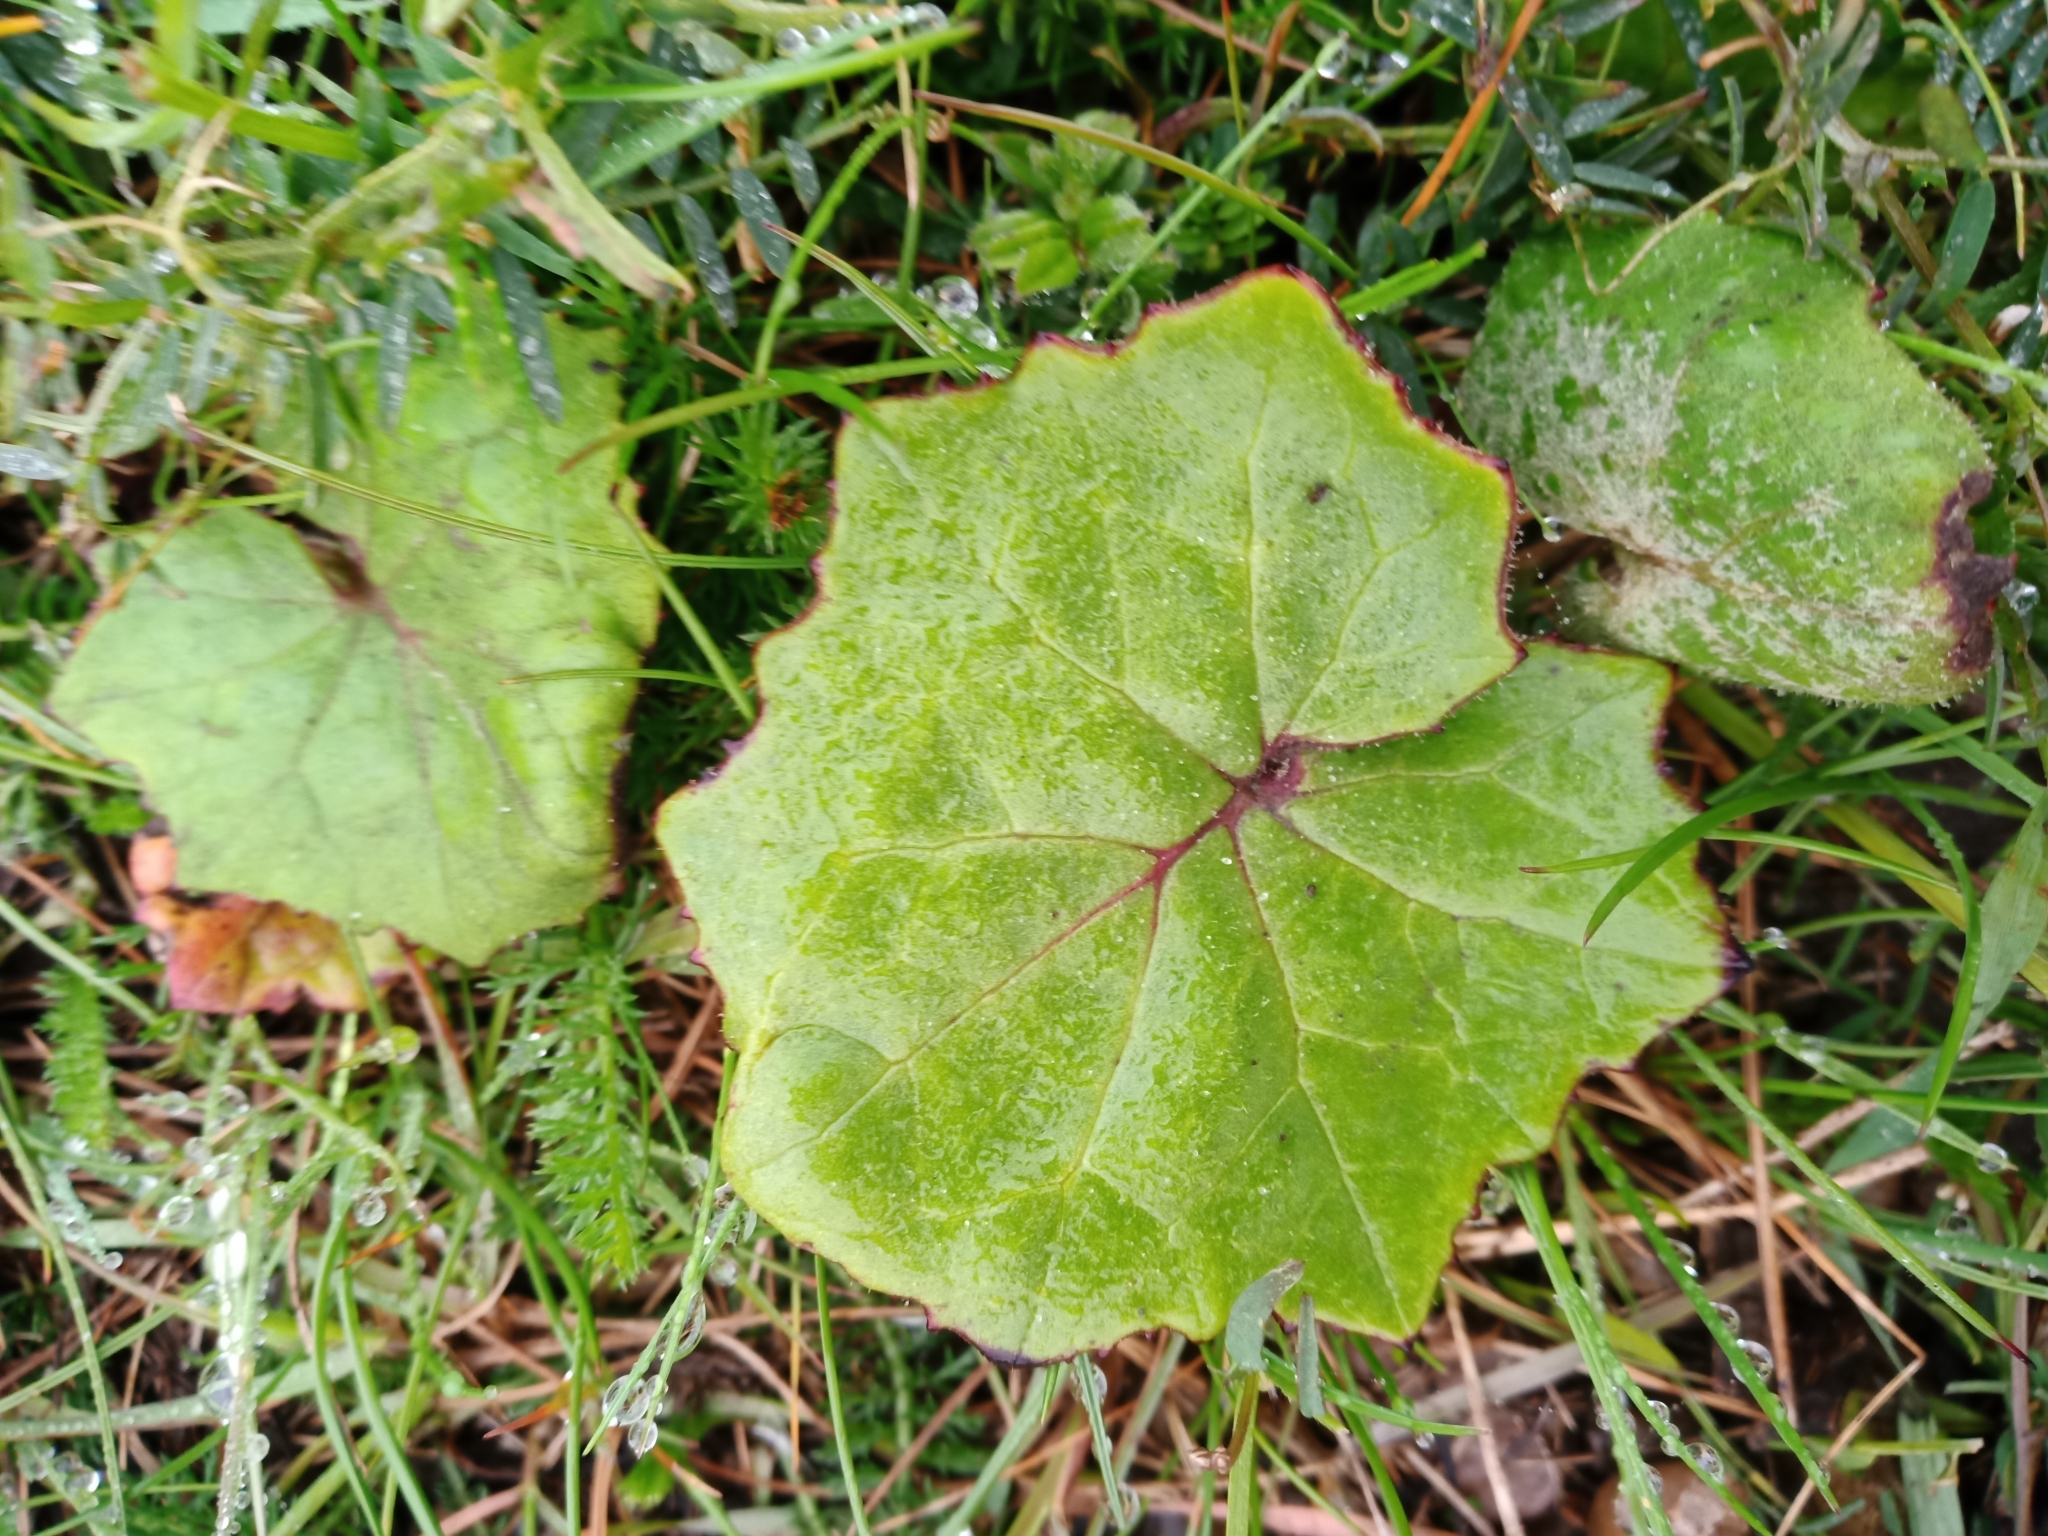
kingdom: Plantae
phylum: Tracheophyta
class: Magnoliopsida
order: Asterales
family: Asteraceae
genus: Tussilago
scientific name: Tussilago farfara
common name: Coltsfoot
